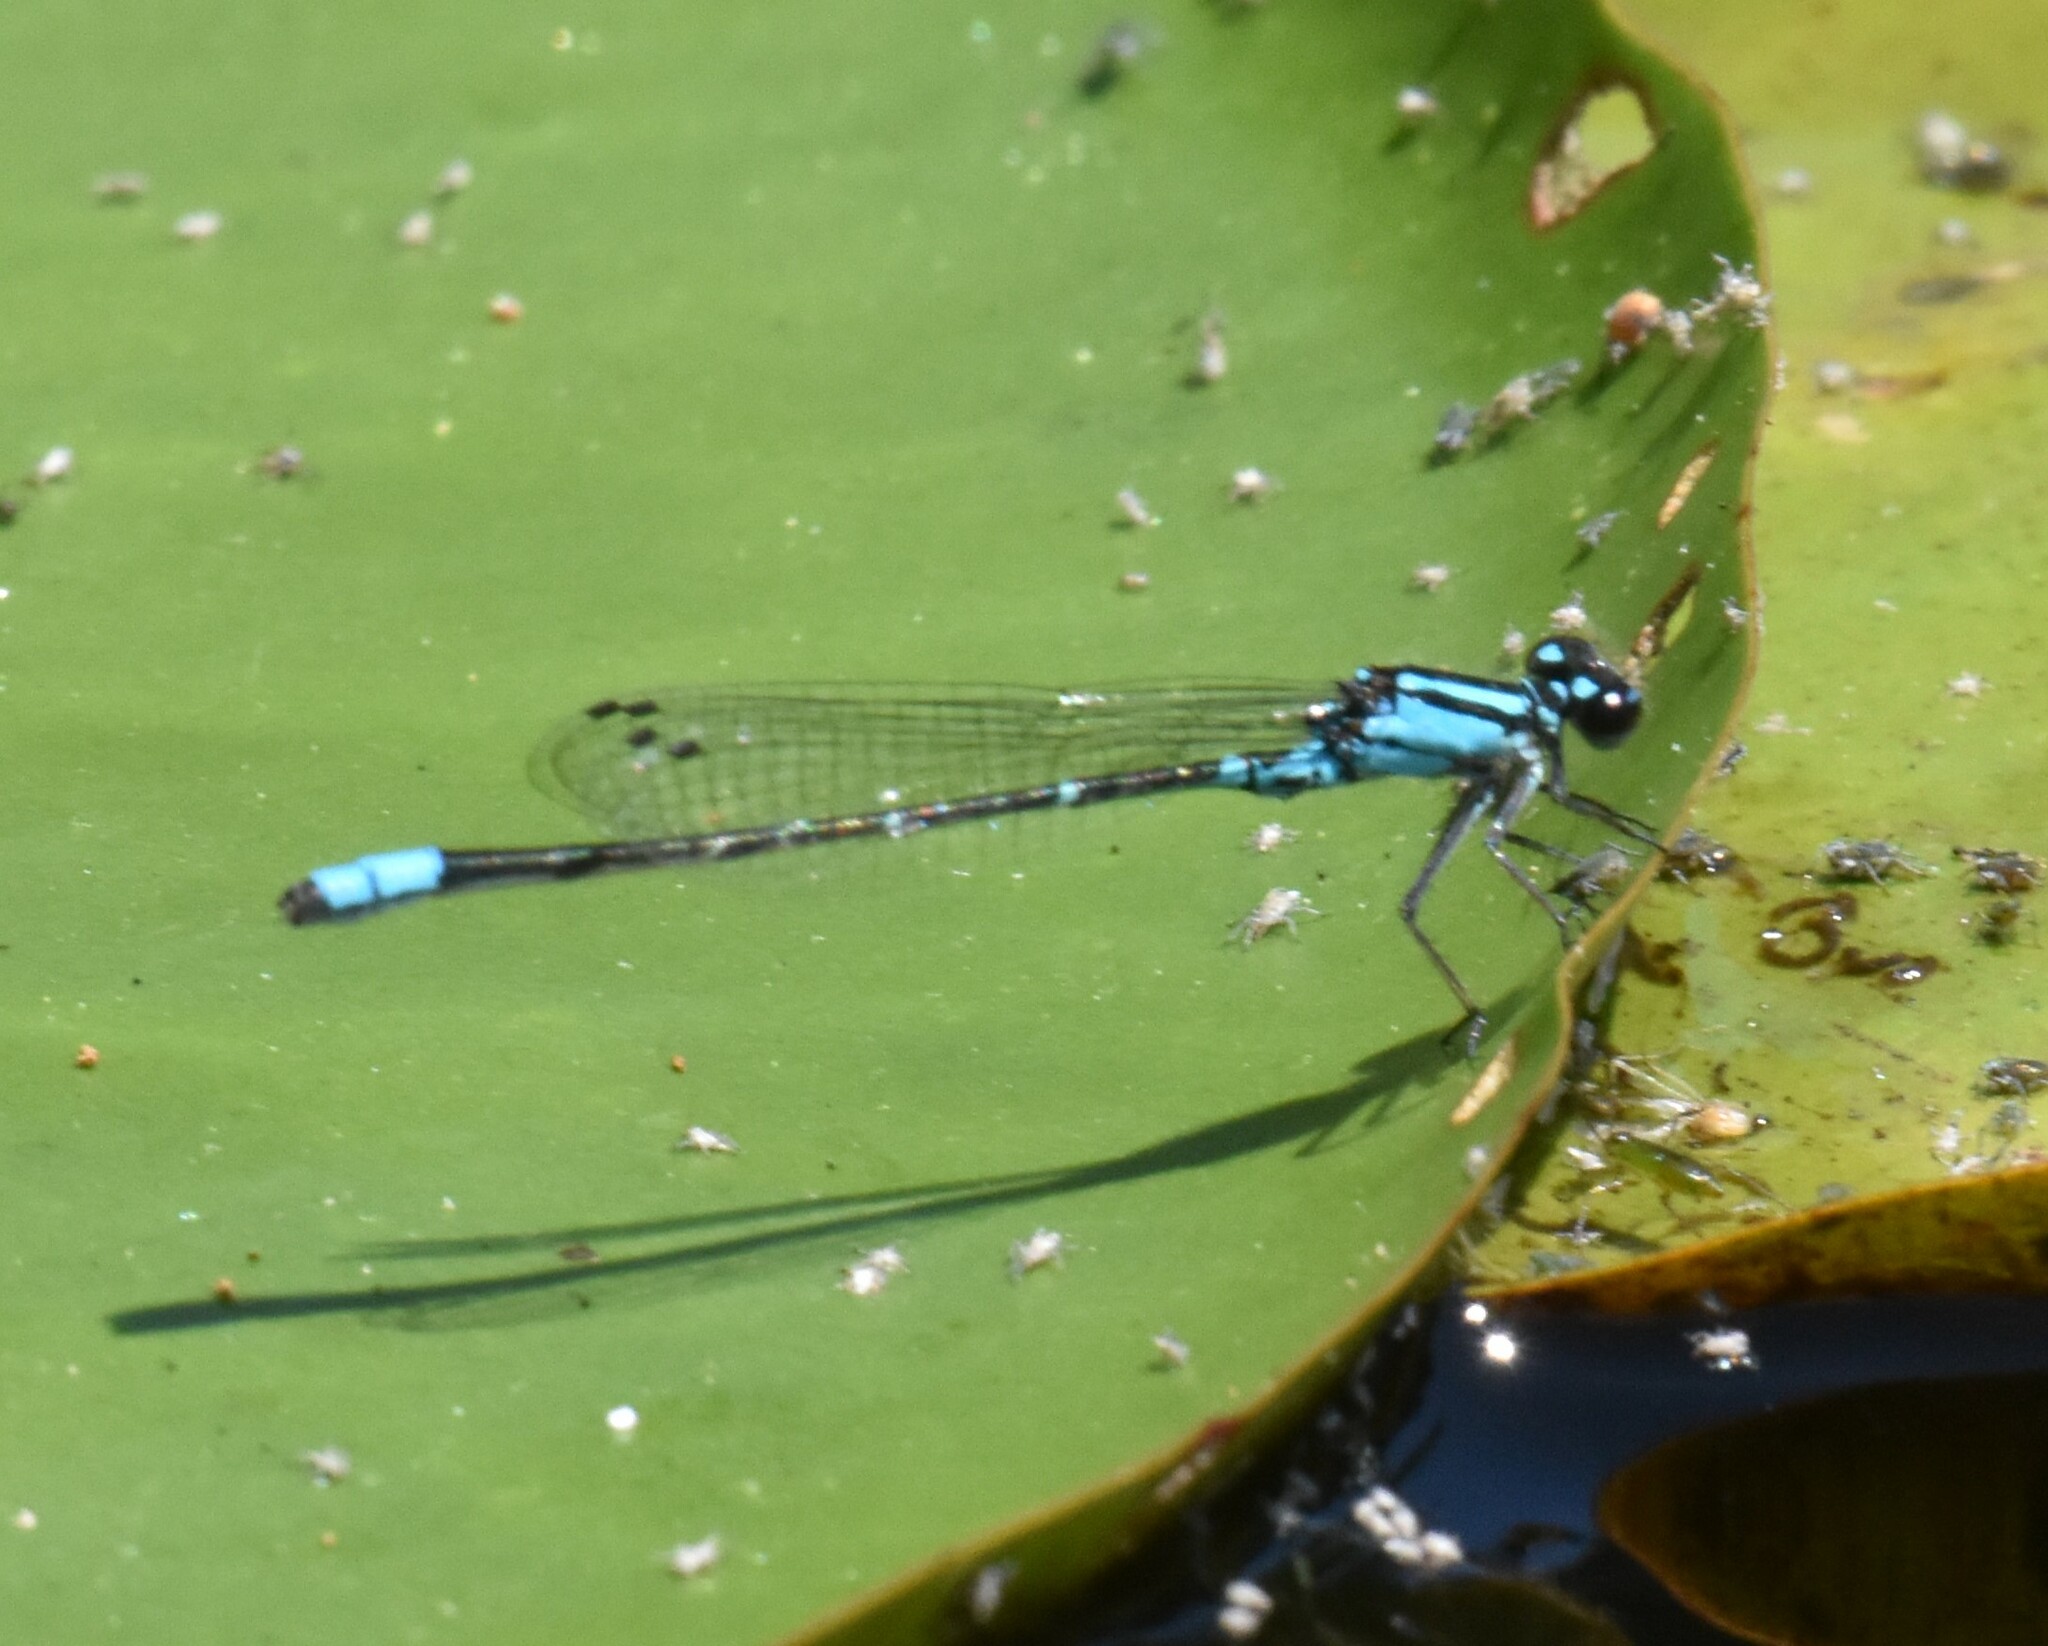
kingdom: Animalia
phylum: Arthropoda
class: Insecta
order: Odonata
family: Coenagrionidae
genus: Enallagma
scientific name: Enallagma geminatum
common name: Skimming bluet
